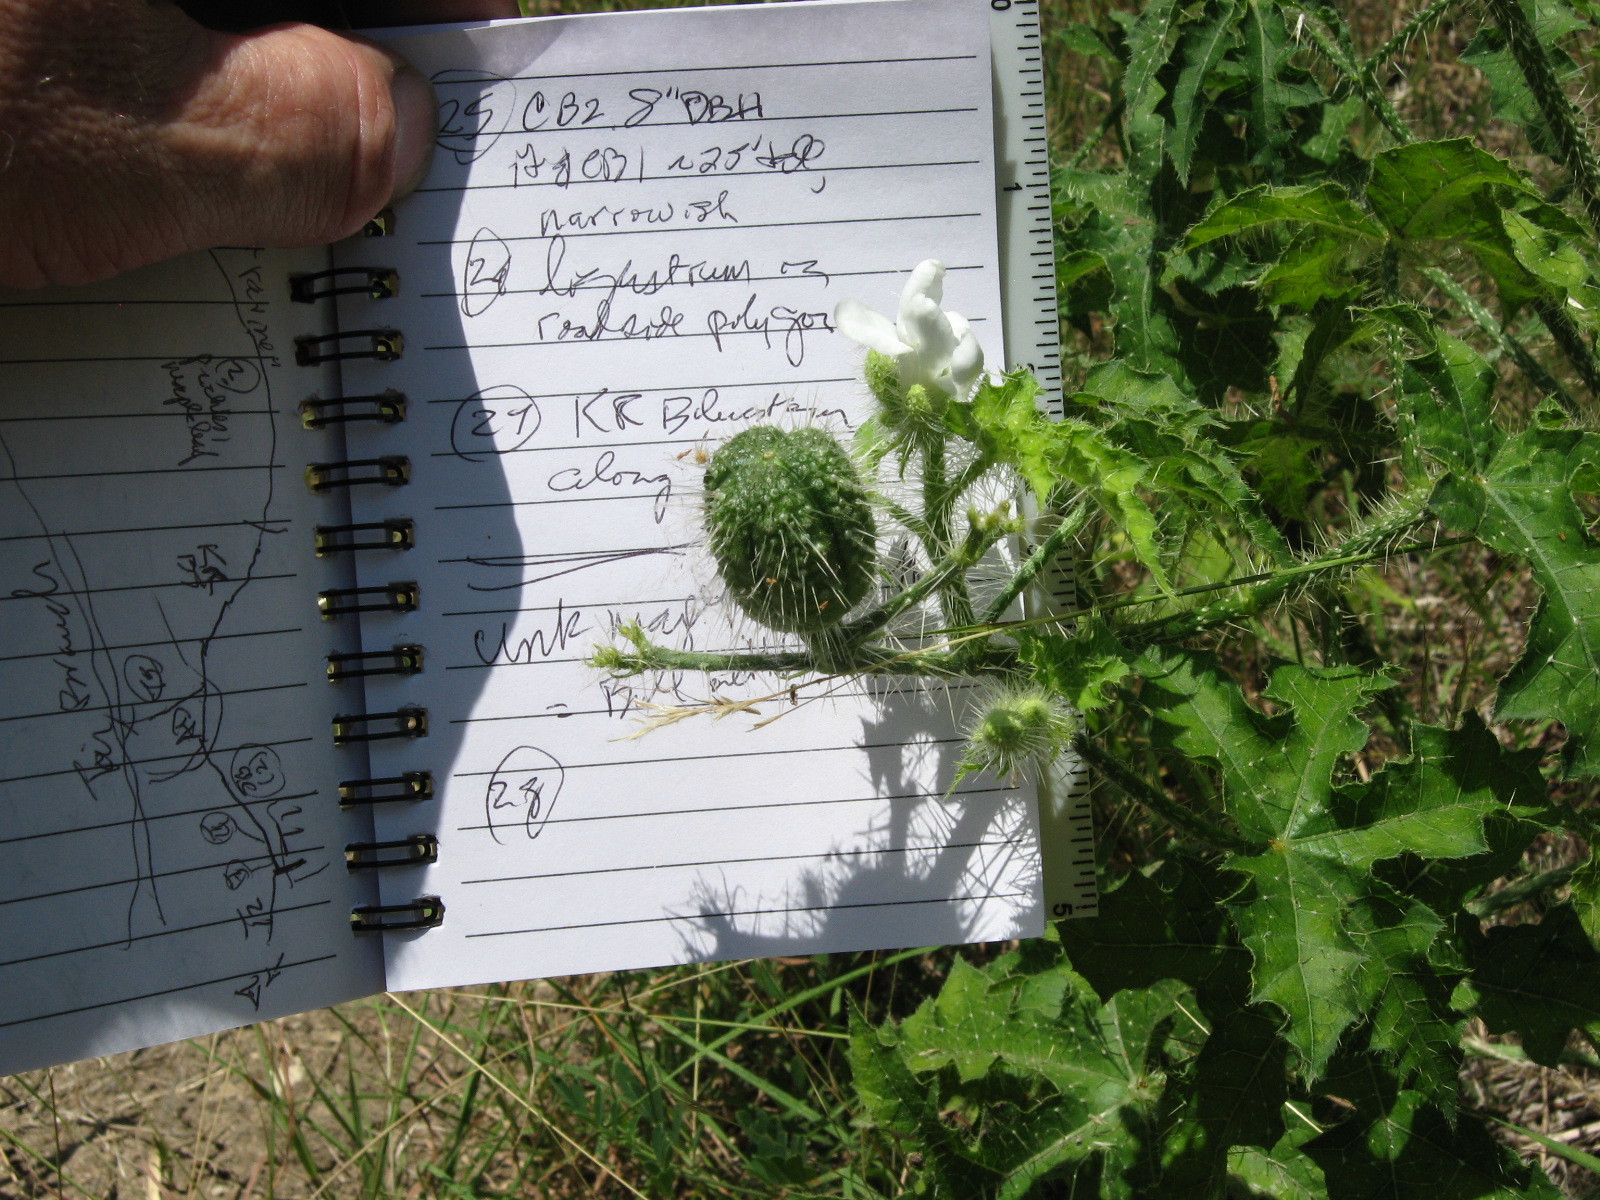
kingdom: Plantae
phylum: Tracheophyta
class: Magnoliopsida
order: Malpighiales
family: Euphorbiaceae
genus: Cnidoscolus
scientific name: Cnidoscolus texanus
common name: Texas bull-nettle
